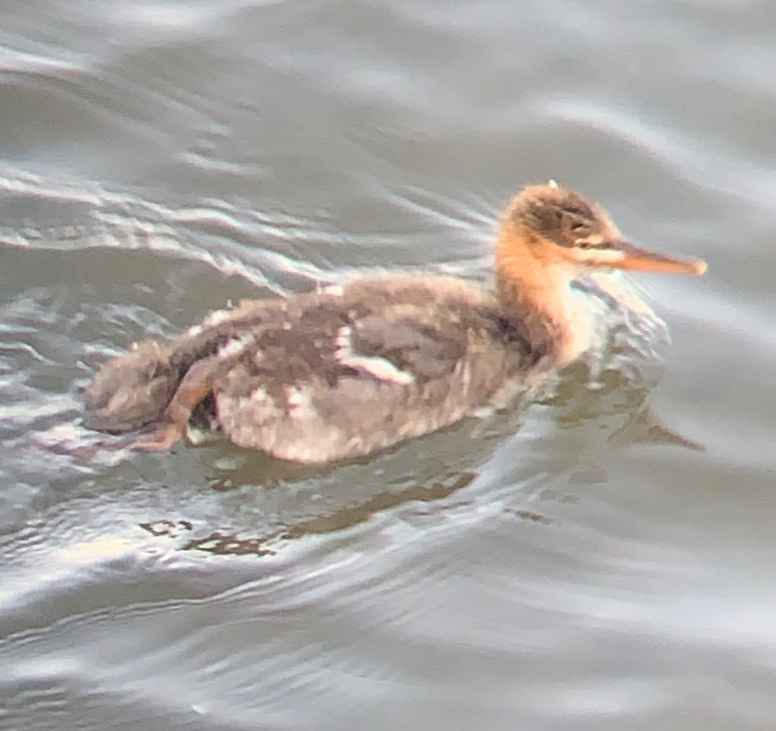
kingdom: Animalia
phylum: Chordata
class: Aves
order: Anseriformes
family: Anatidae
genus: Mergus
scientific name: Mergus serrator
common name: Red-breasted merganser
